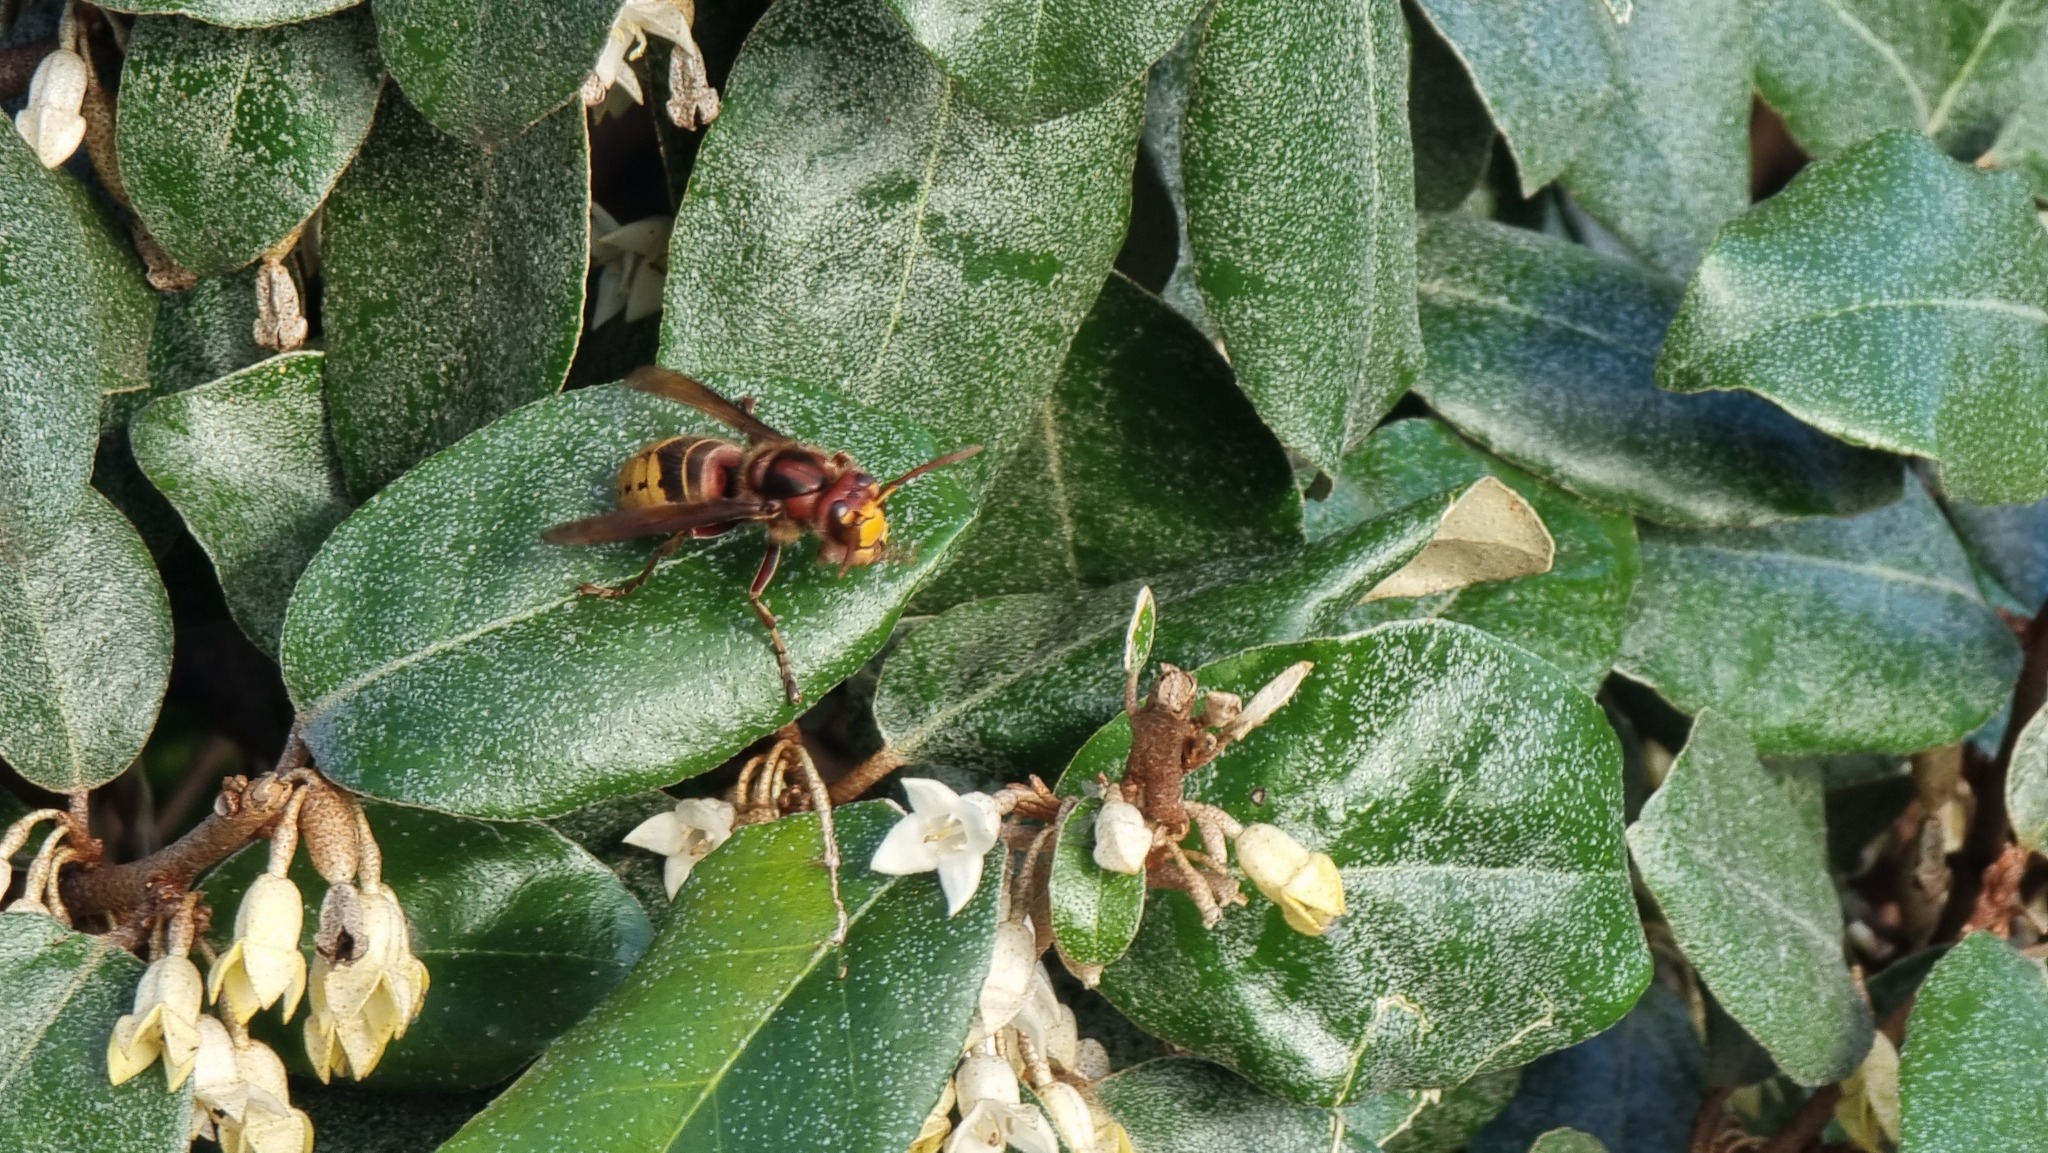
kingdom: Animalia
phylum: Arthropoda
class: Insecta
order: Hymenoptera
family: Vespidae
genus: Vespa
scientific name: Vespa crabro
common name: Hornet
